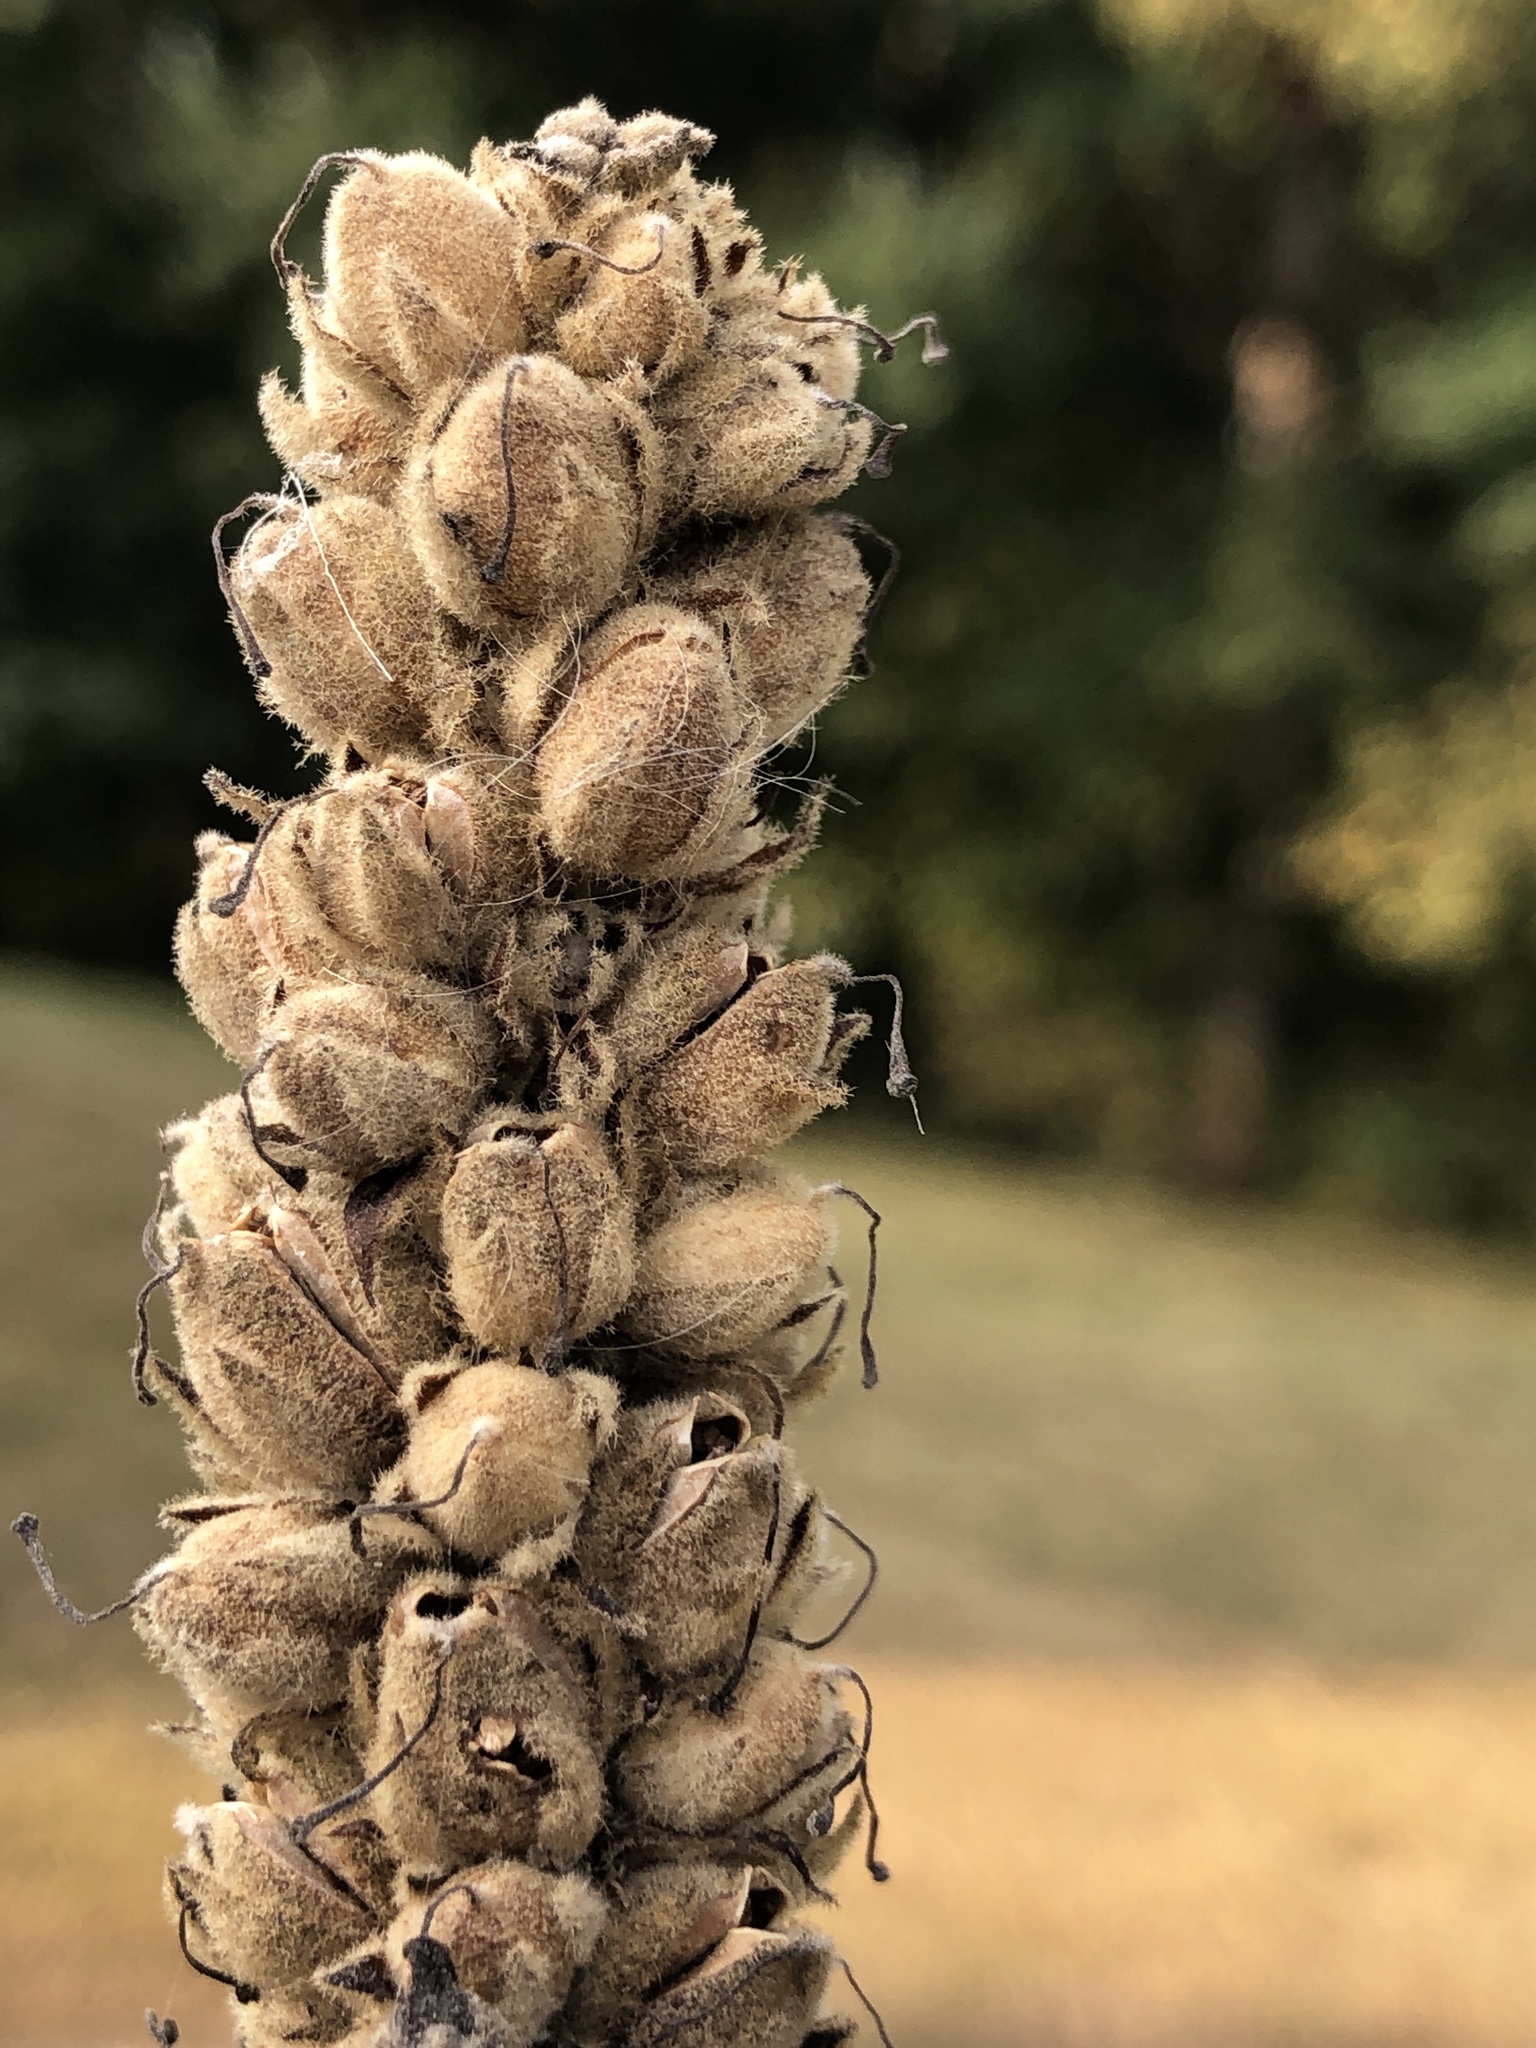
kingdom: Plantae
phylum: Tracheophyta
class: Magnoliopsida
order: Lamiales
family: Scrophulariaceae
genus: Verbascum
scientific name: Verbascum thapsus
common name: Common mullein
